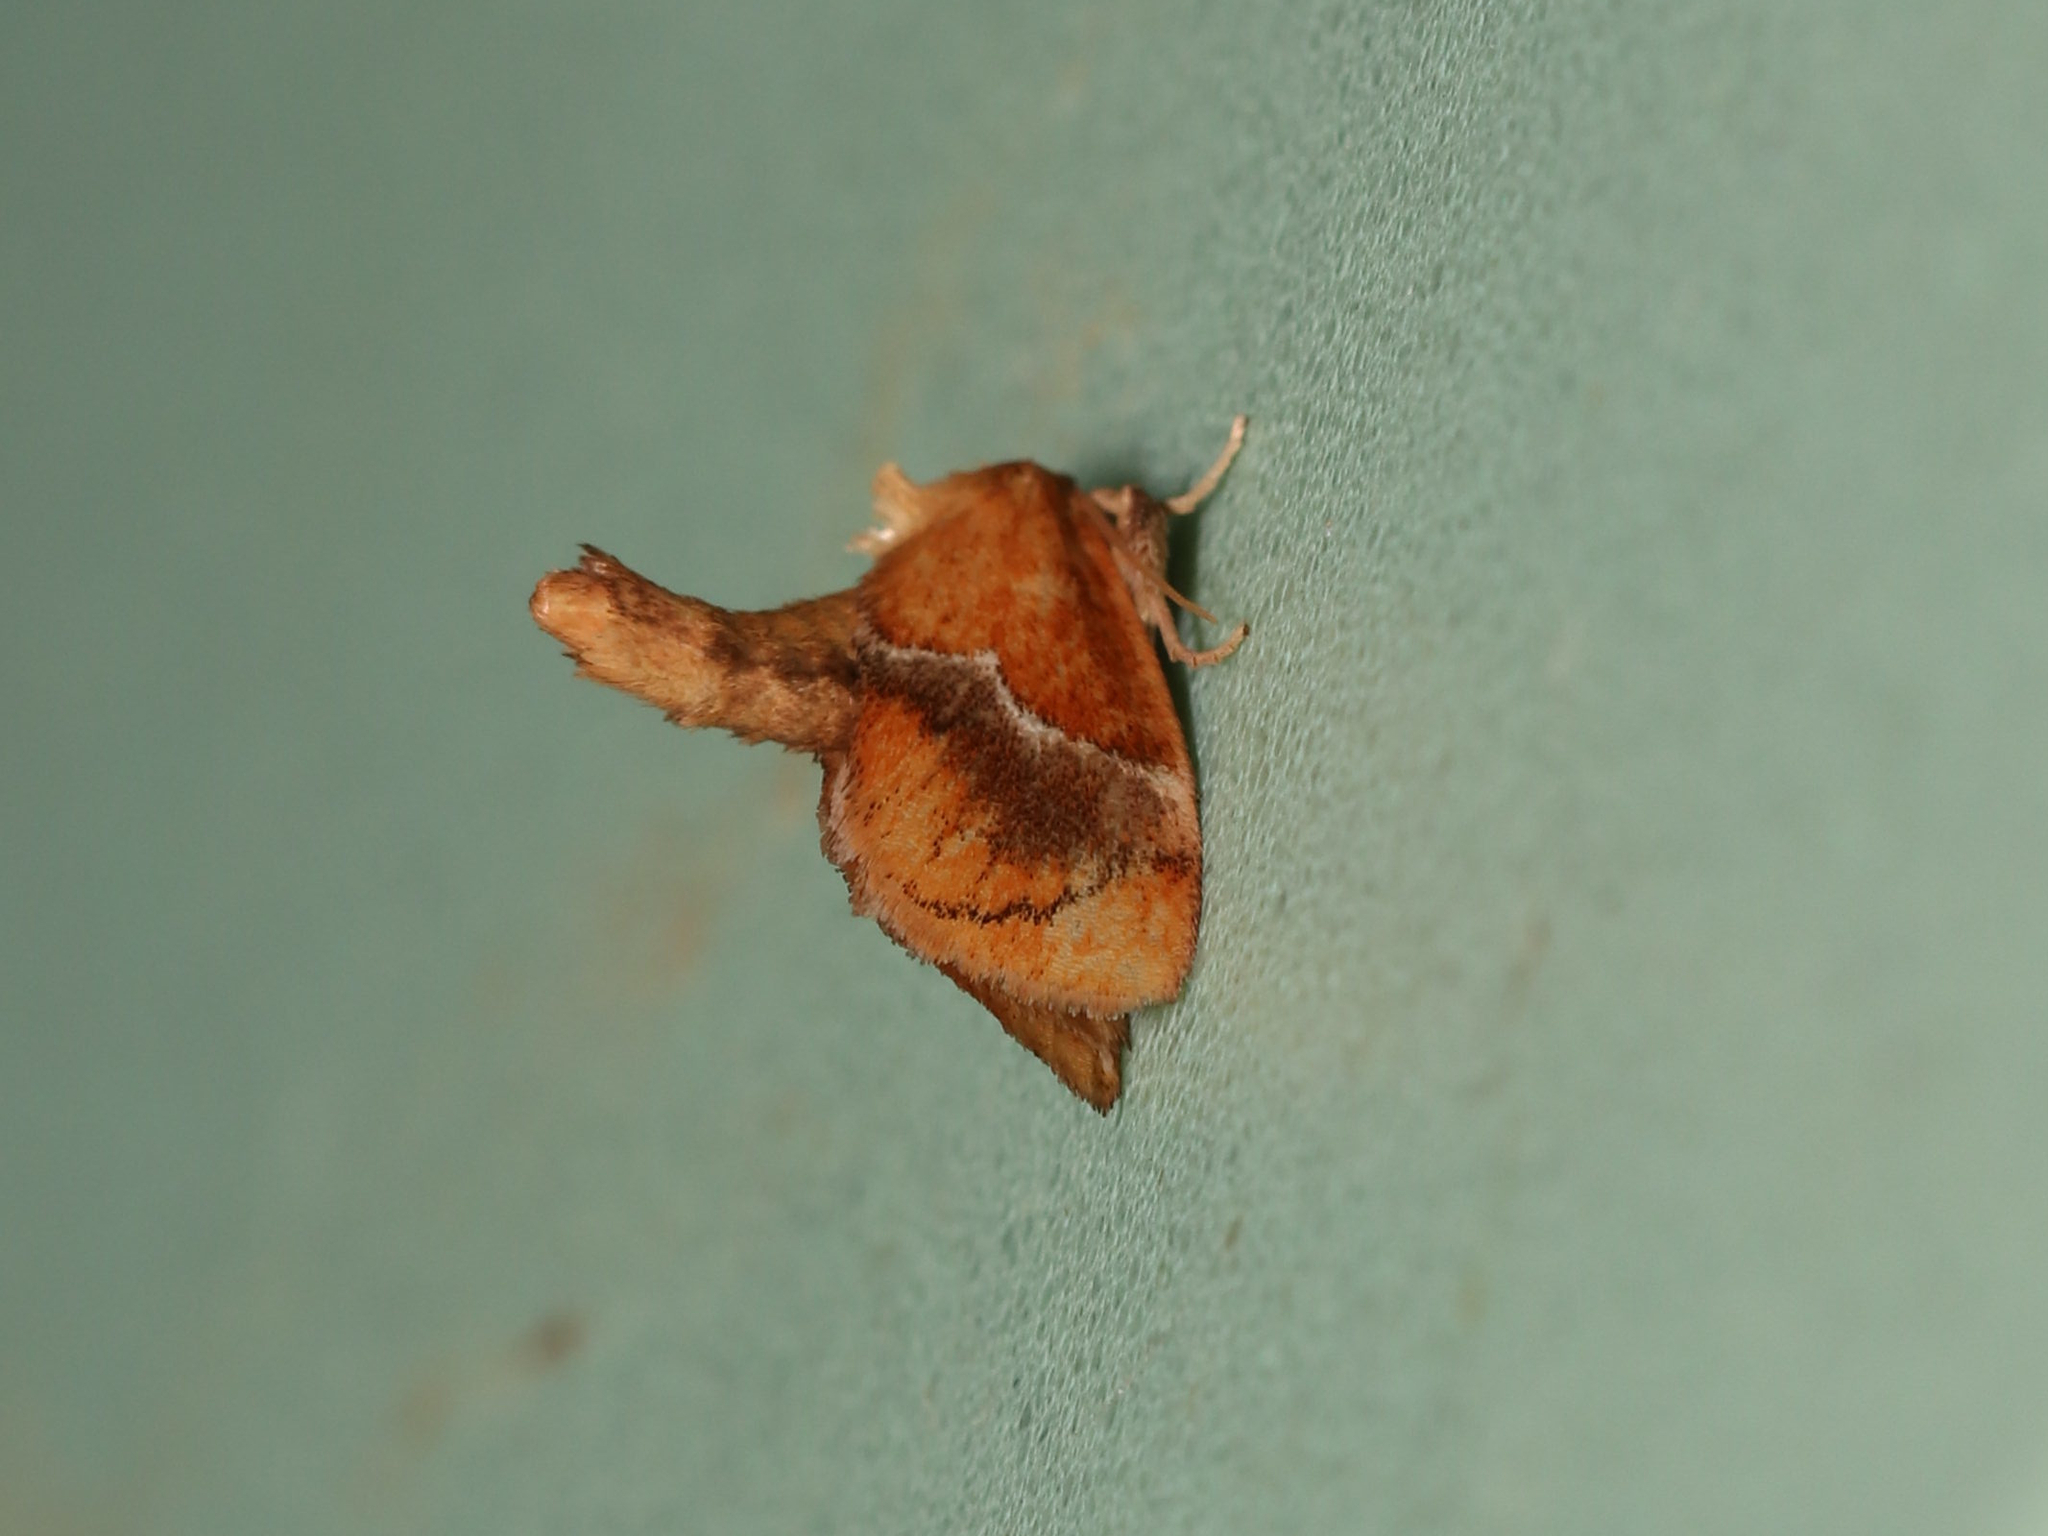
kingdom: Animalia
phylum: Arthropoda
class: Insecta
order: Lepidoptera
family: Limacodidae
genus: Lithacodes
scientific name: Lithacodes fasciola
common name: Yellow-shouldered slug moth
